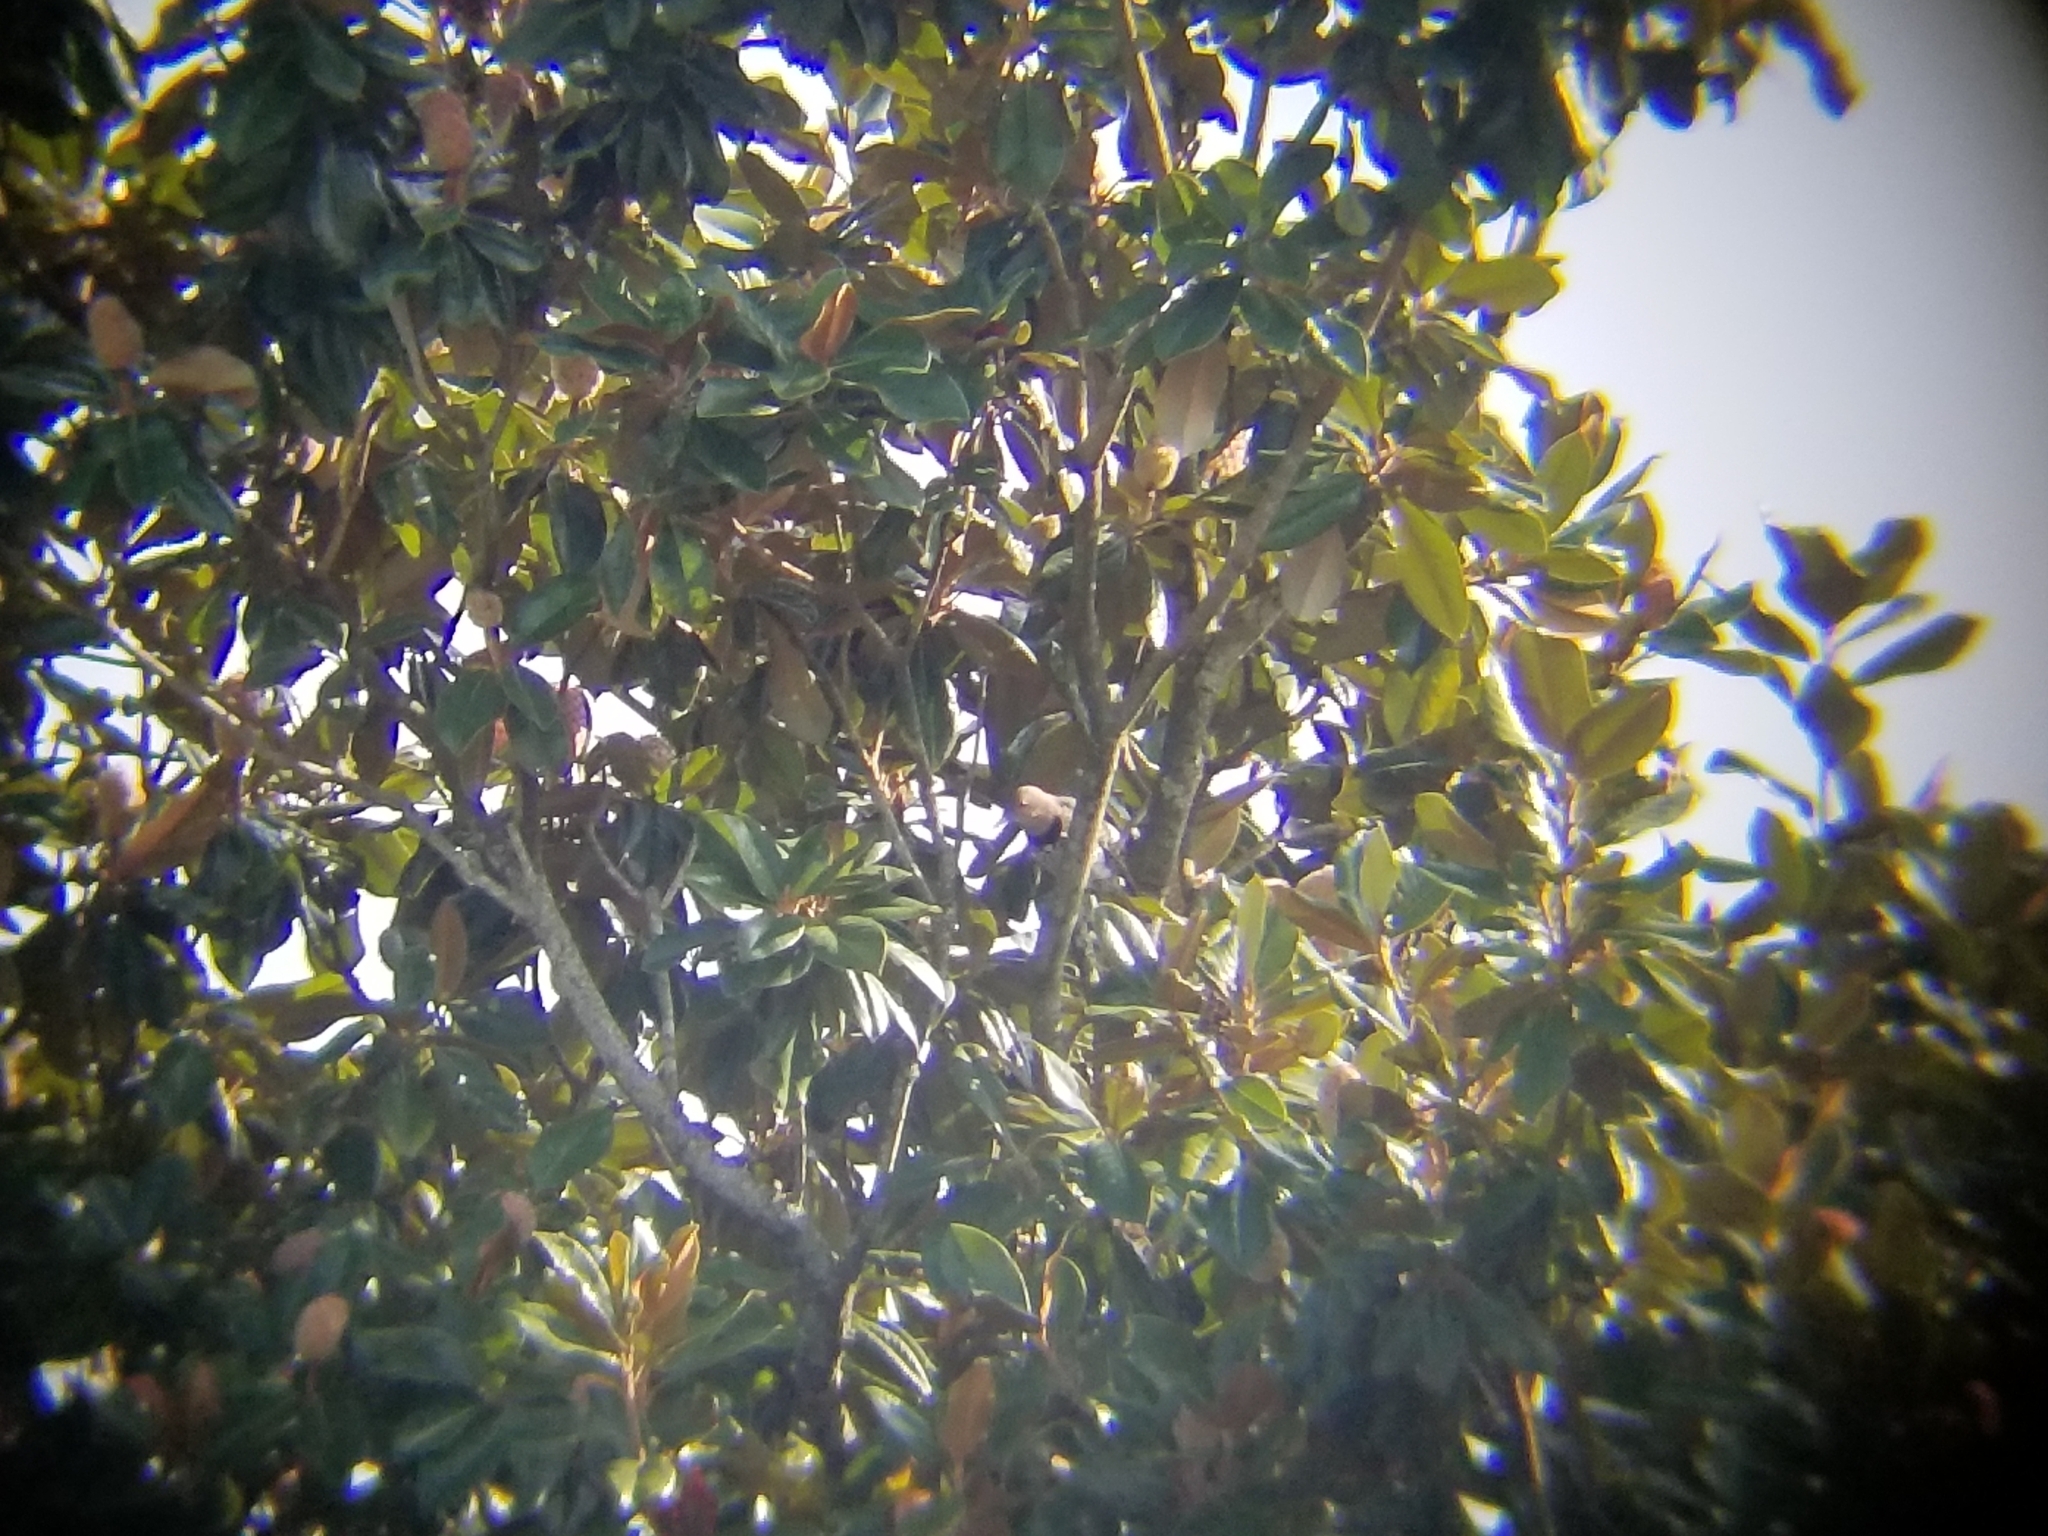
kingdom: Animalia
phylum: Chordata
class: Aves
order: Piciformes
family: Picidae
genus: Colaptes
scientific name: Colaptes auratus
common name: Northern flicker
